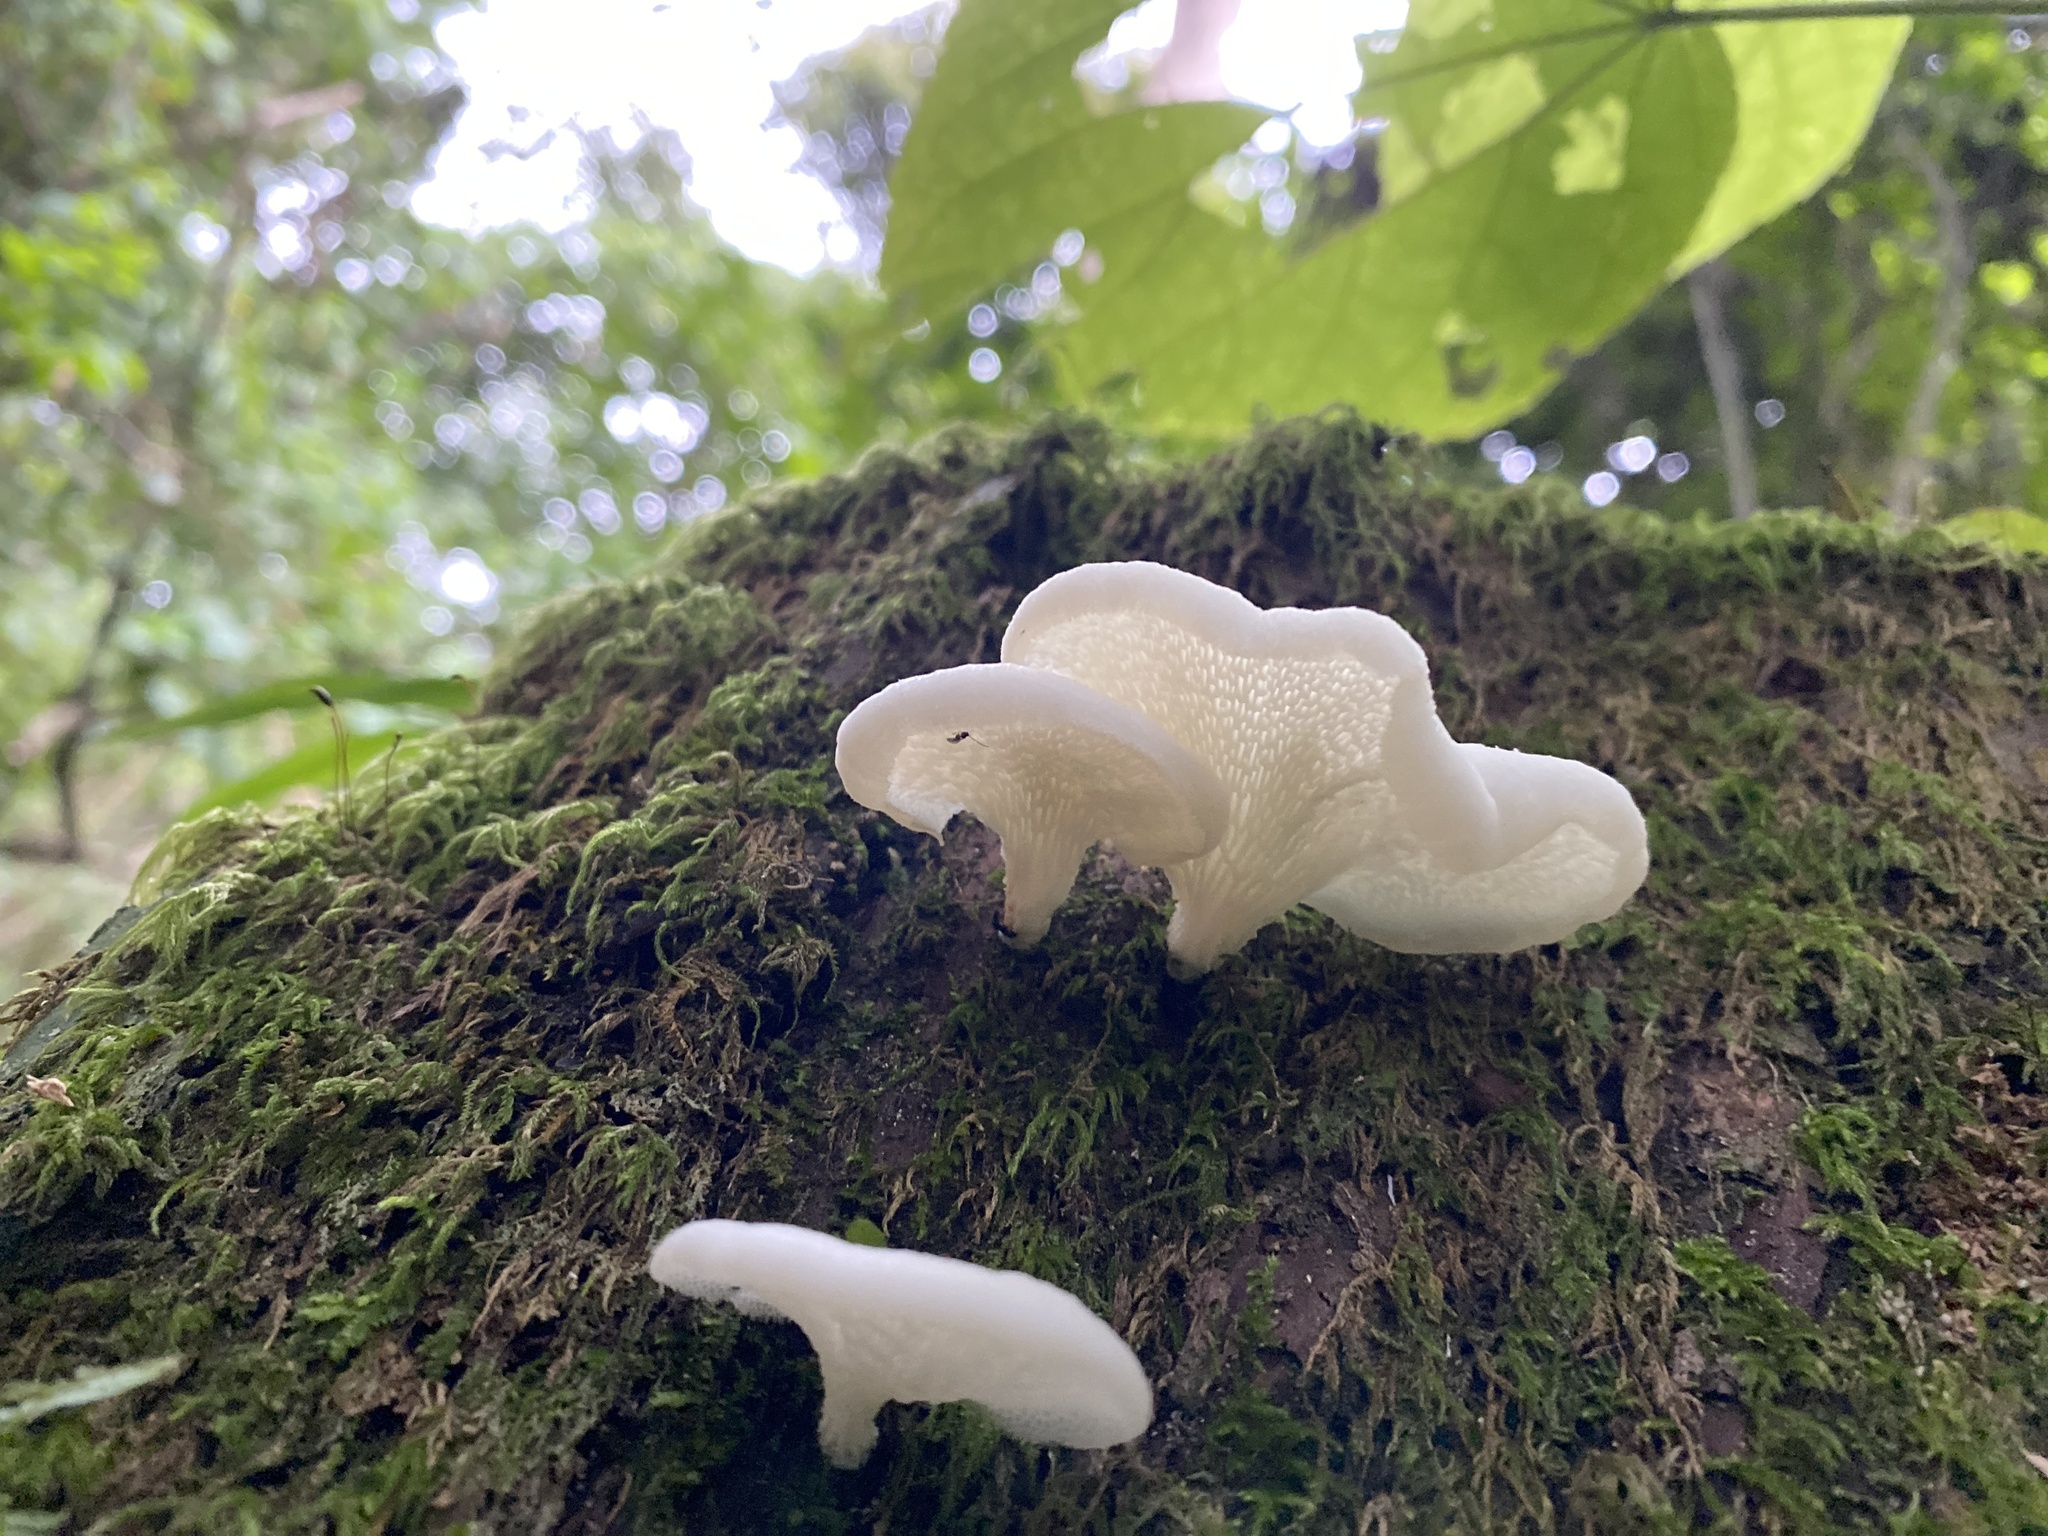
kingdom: Fungi
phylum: Basidiomycota
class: Agaricomycetes
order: Polyporales
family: Polyporaceae
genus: Favolus
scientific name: Favolus tenuiculus
